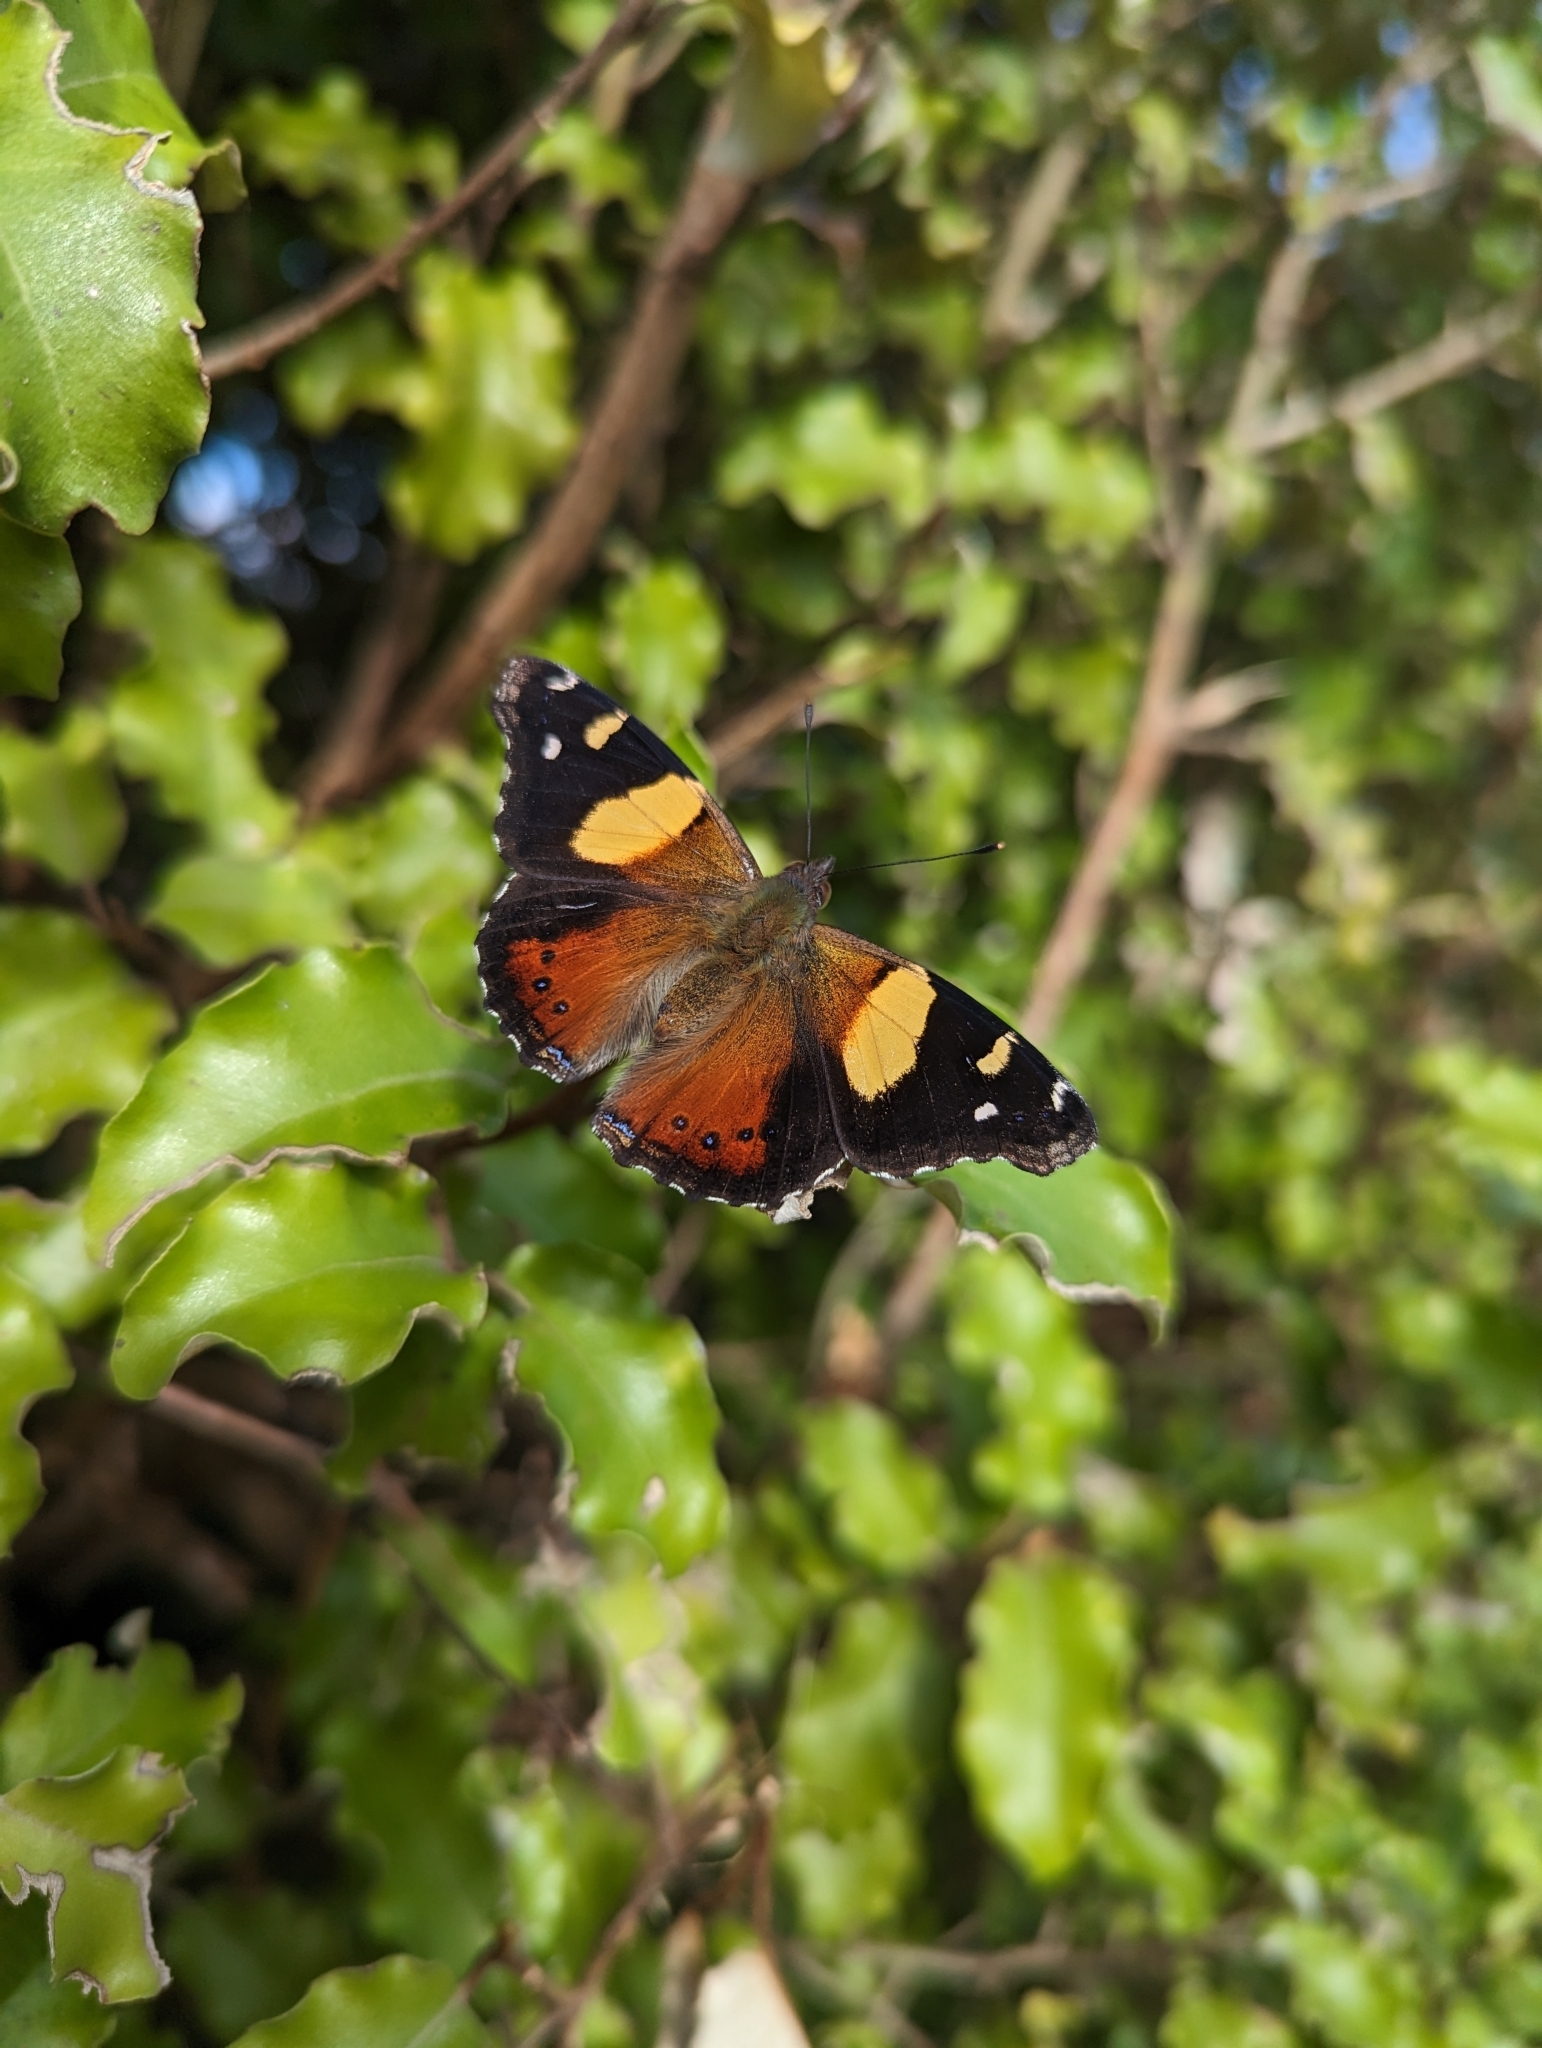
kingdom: Animalia
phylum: Arthropoda
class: Insecta
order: Lepidoptera
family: Nymphalidae
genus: Vanessa
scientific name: Vanessa itea
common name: Yellow admiral
